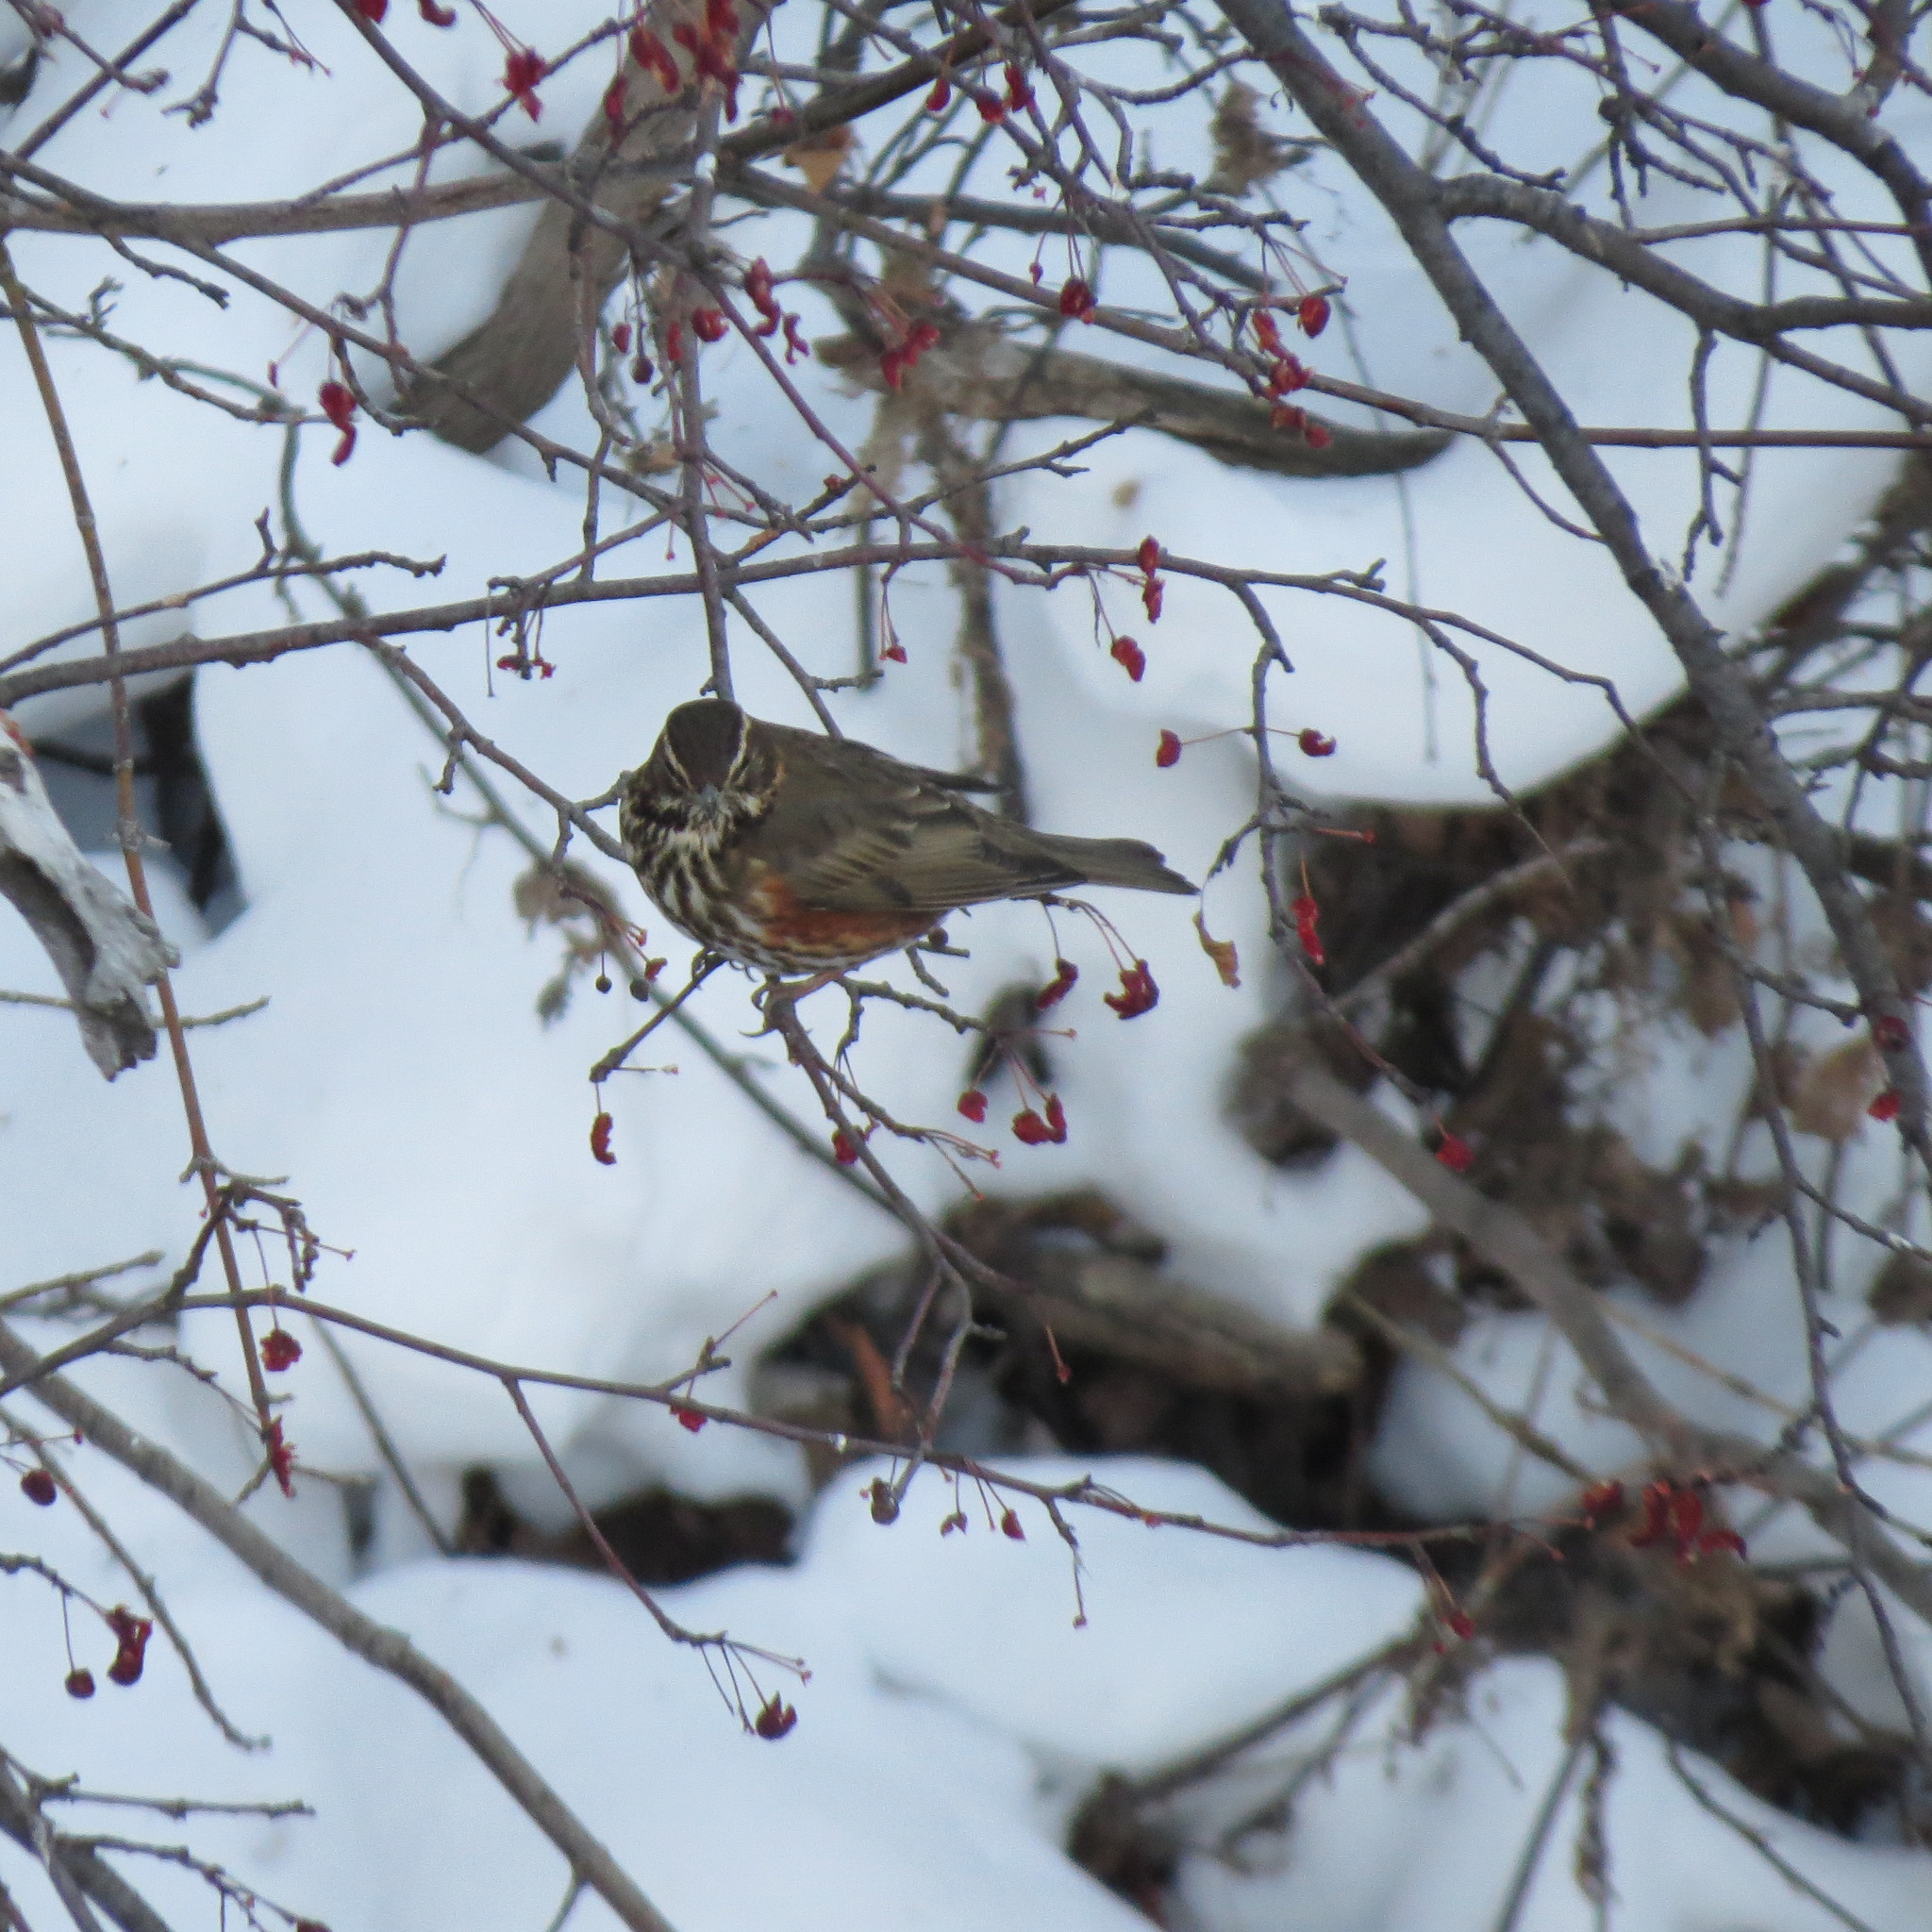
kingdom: Animalia
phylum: Chordata
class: Aves
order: Passeriformes
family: Turdidae
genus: Turdus
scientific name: Turdus iliacus
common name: Redwing
